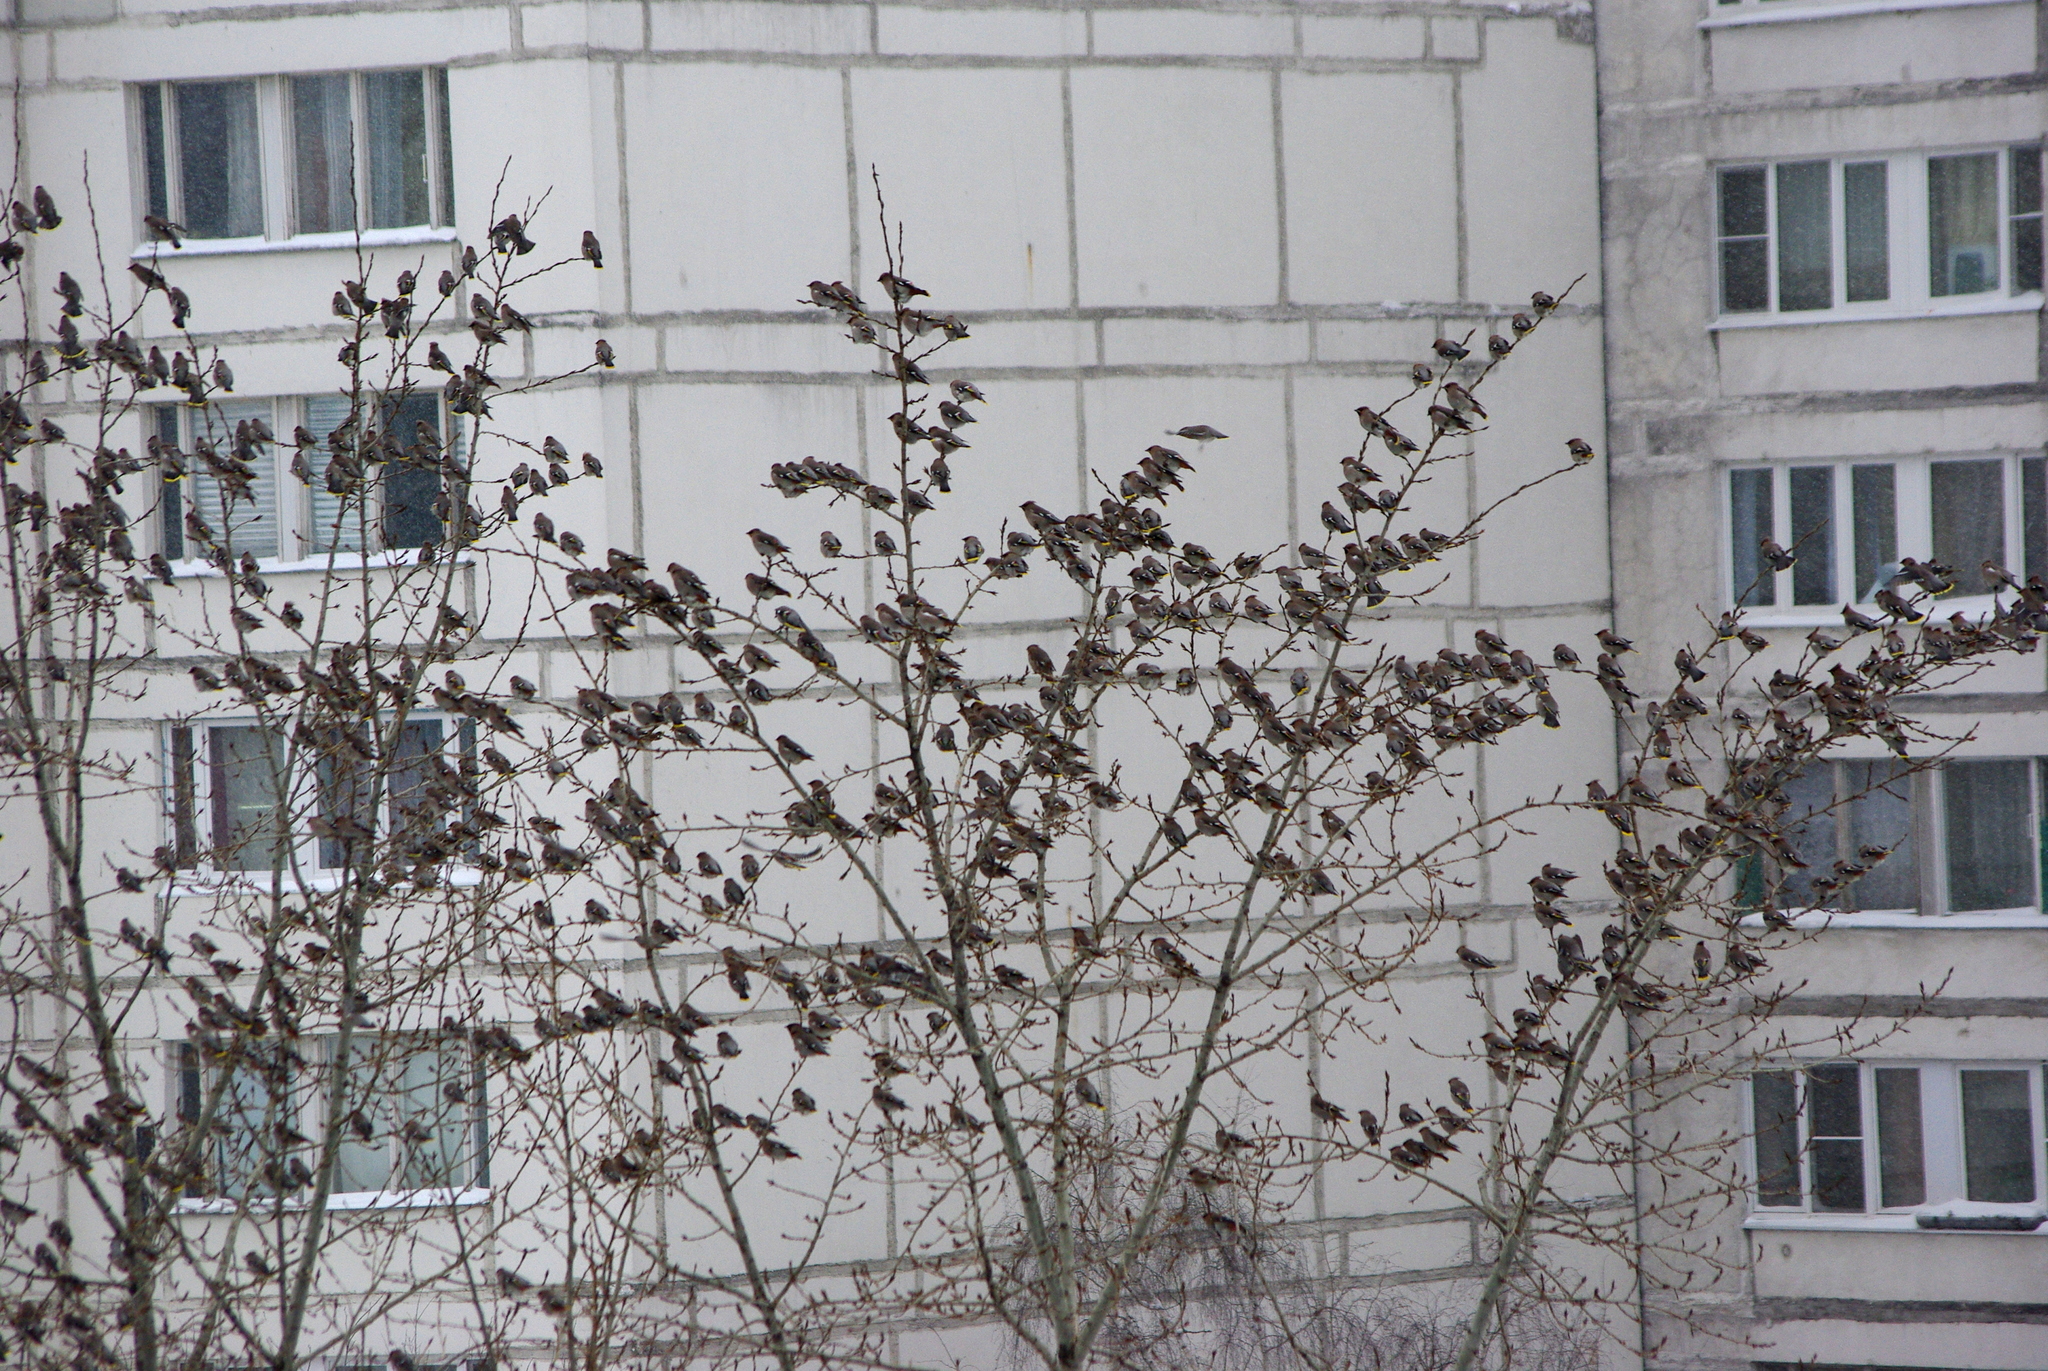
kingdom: Animalia
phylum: Chordata
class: Aves
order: Passeriformes
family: Bombycillidae
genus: Bombycilla
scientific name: Bombycilla garrulus
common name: Bohemian waxwing
